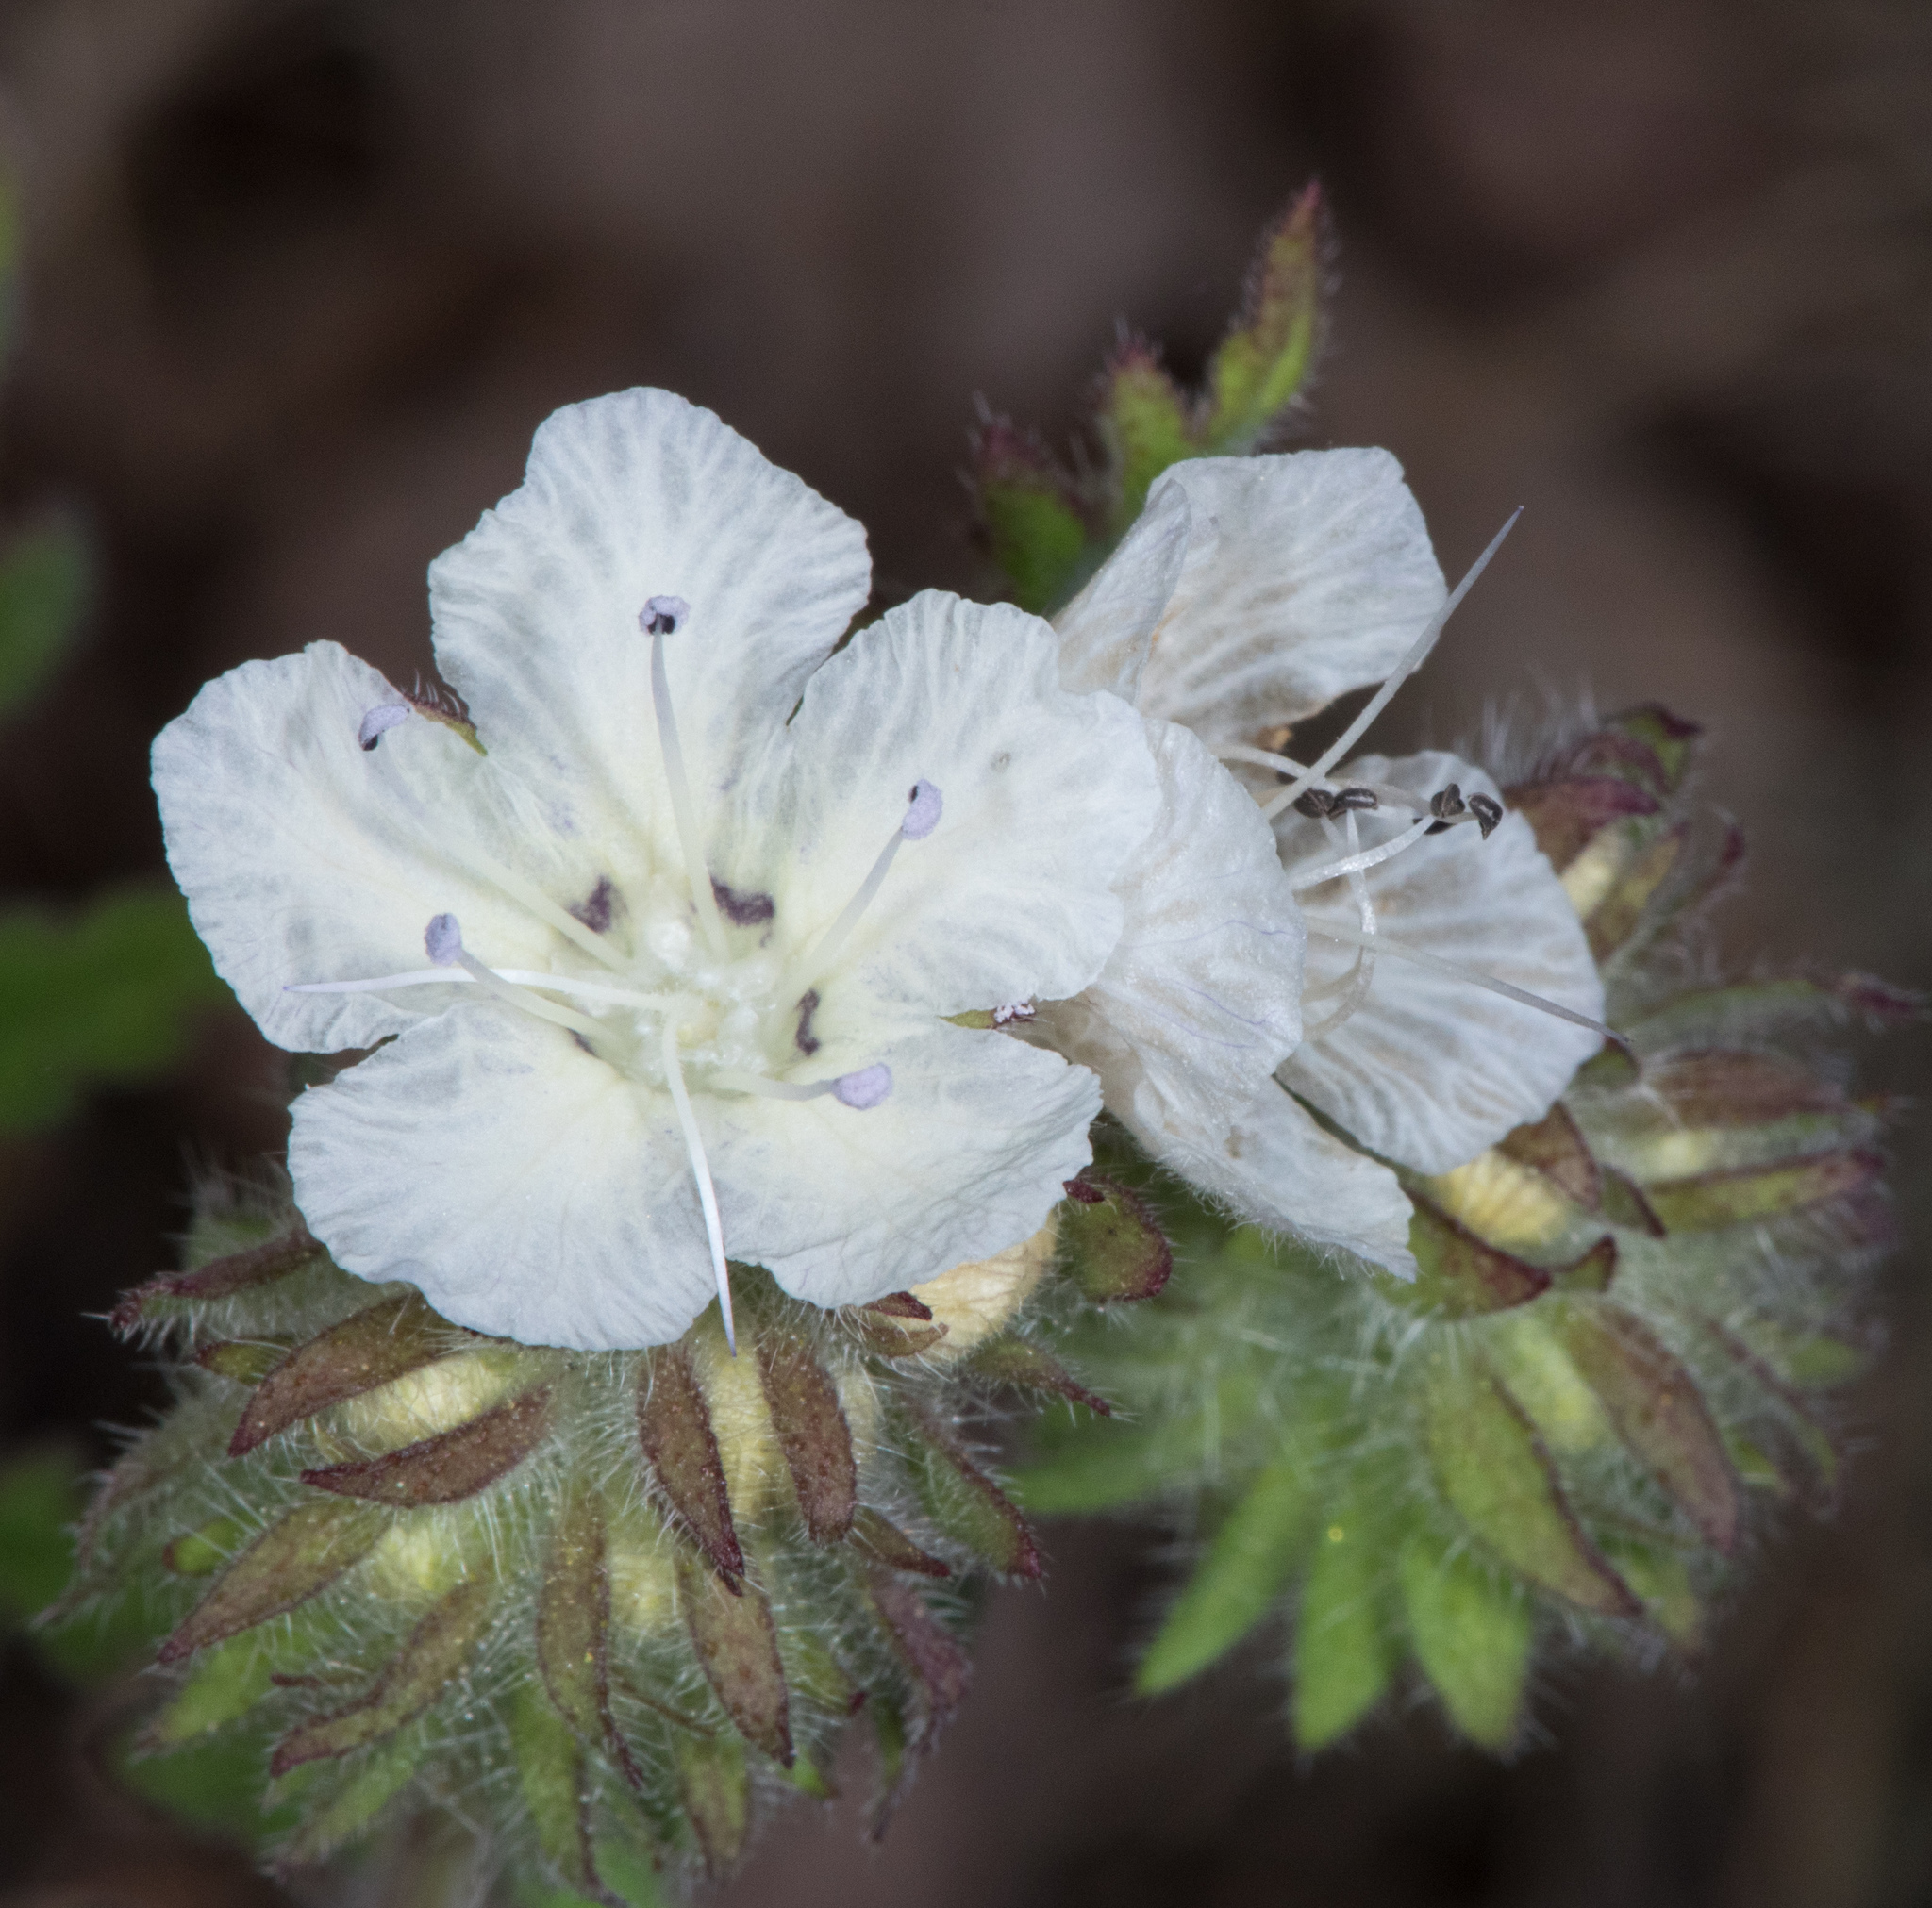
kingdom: Plantae
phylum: Tracheophyta
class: Magnoliopsida
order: Boraginales
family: Hydrophyllaceae
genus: Phacelia
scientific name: Phacelia distans
